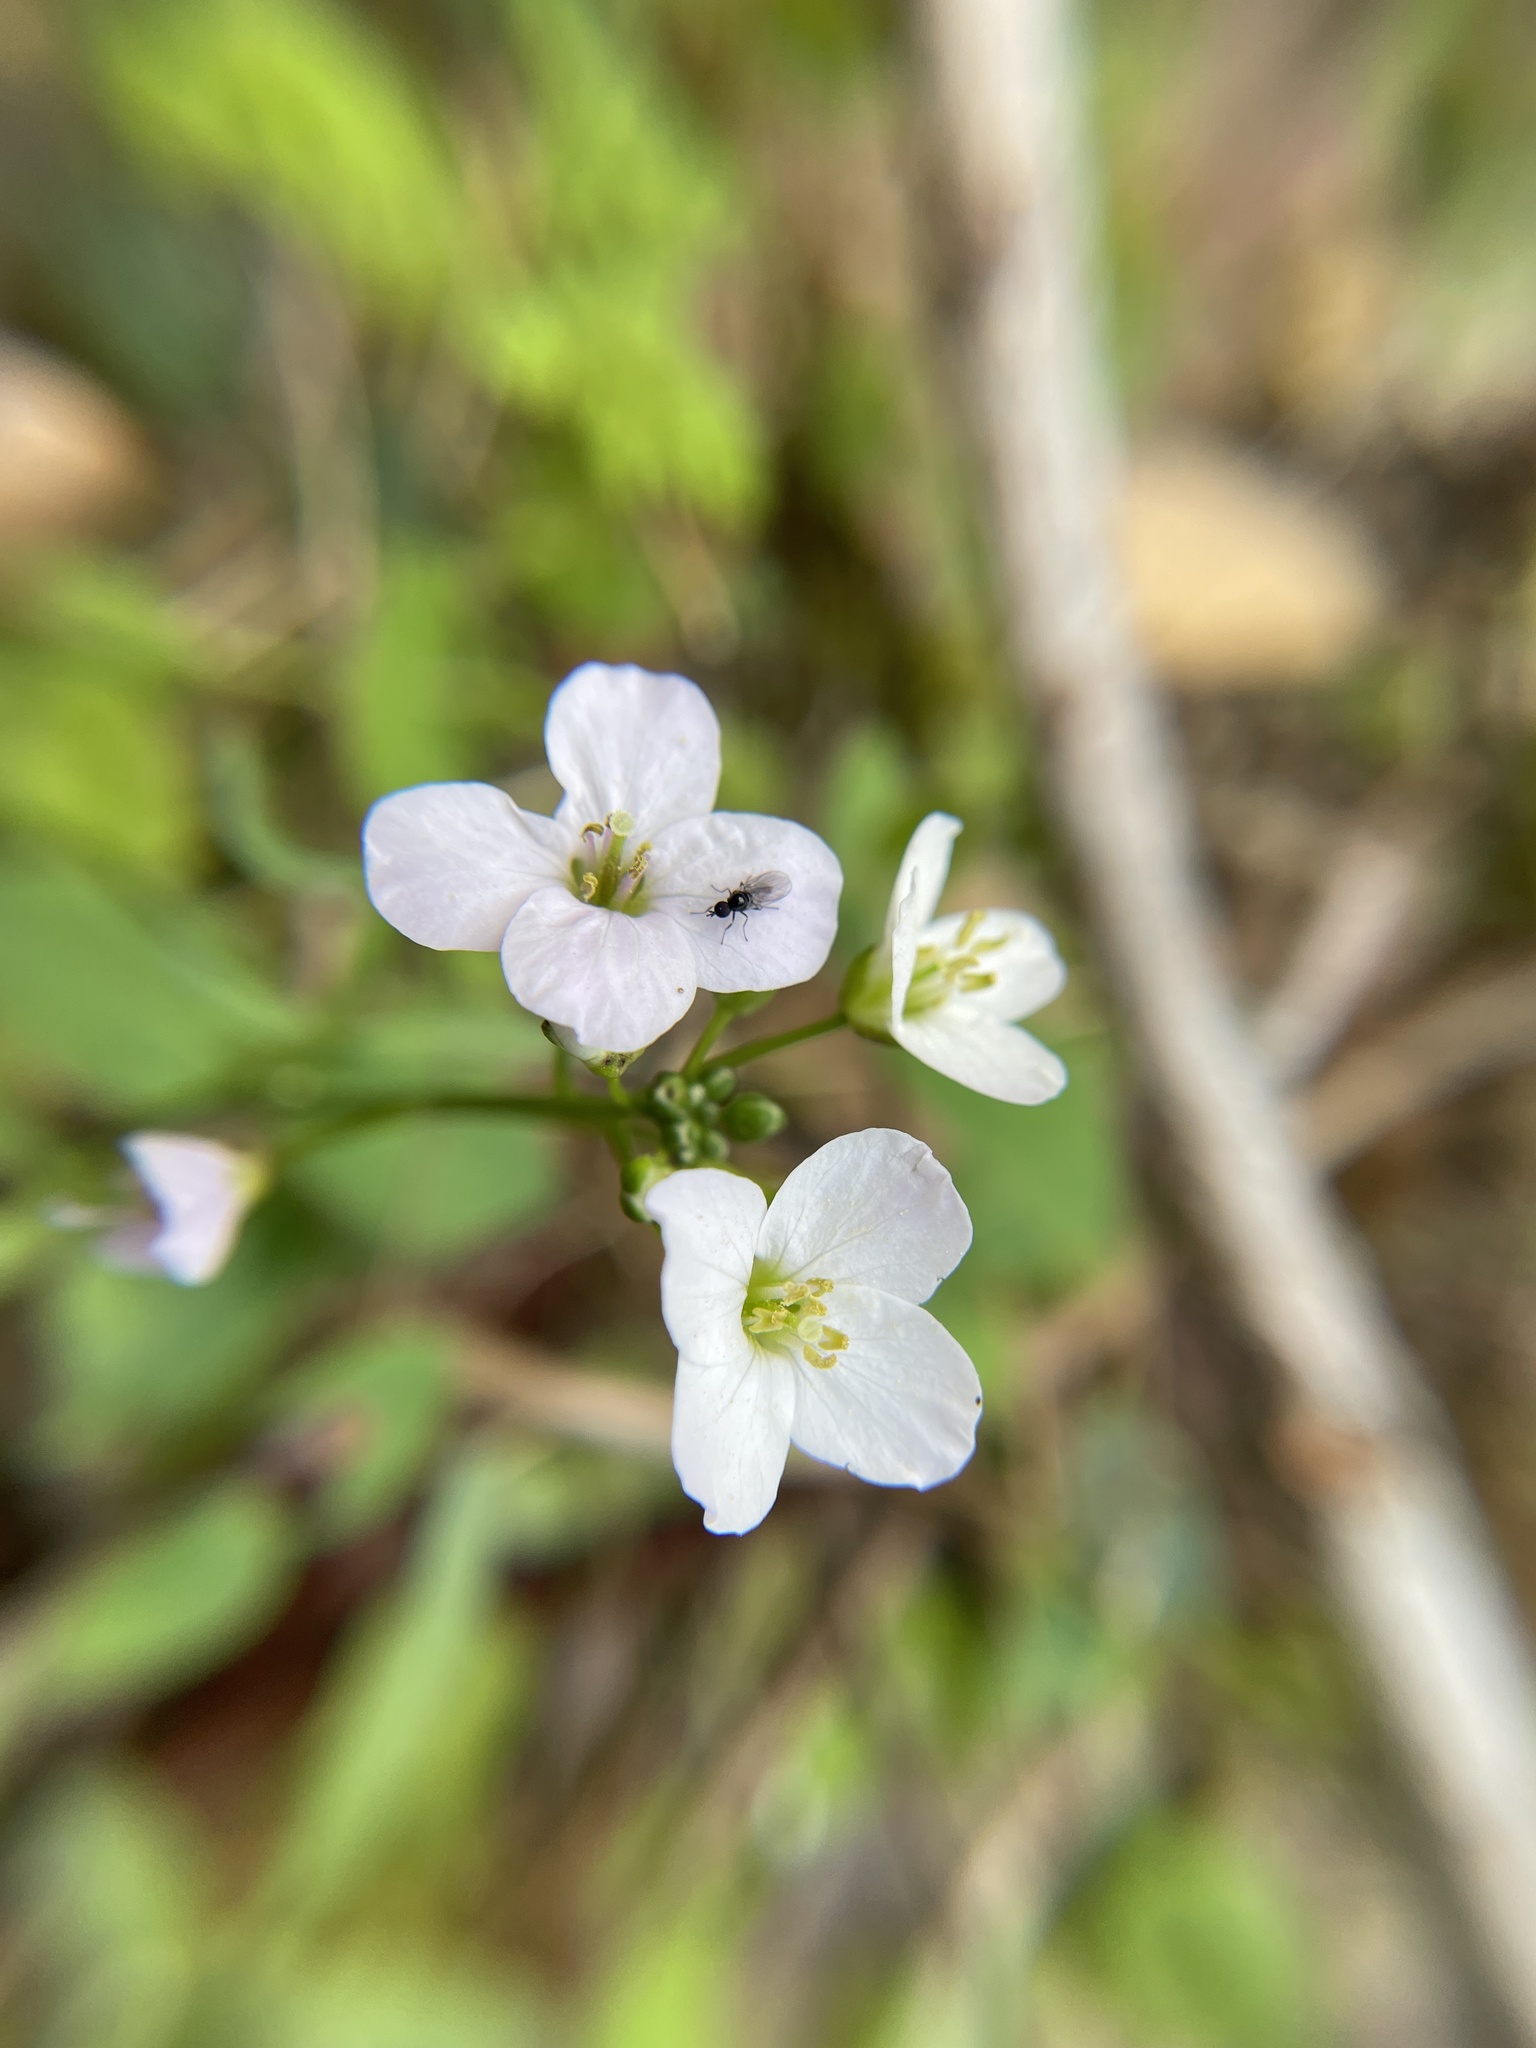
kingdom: Plantae
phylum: Tracheophyta
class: Magnoliopsida
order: Brassicales
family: Brassicaceae
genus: Cardamine
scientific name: Cardamine californica
